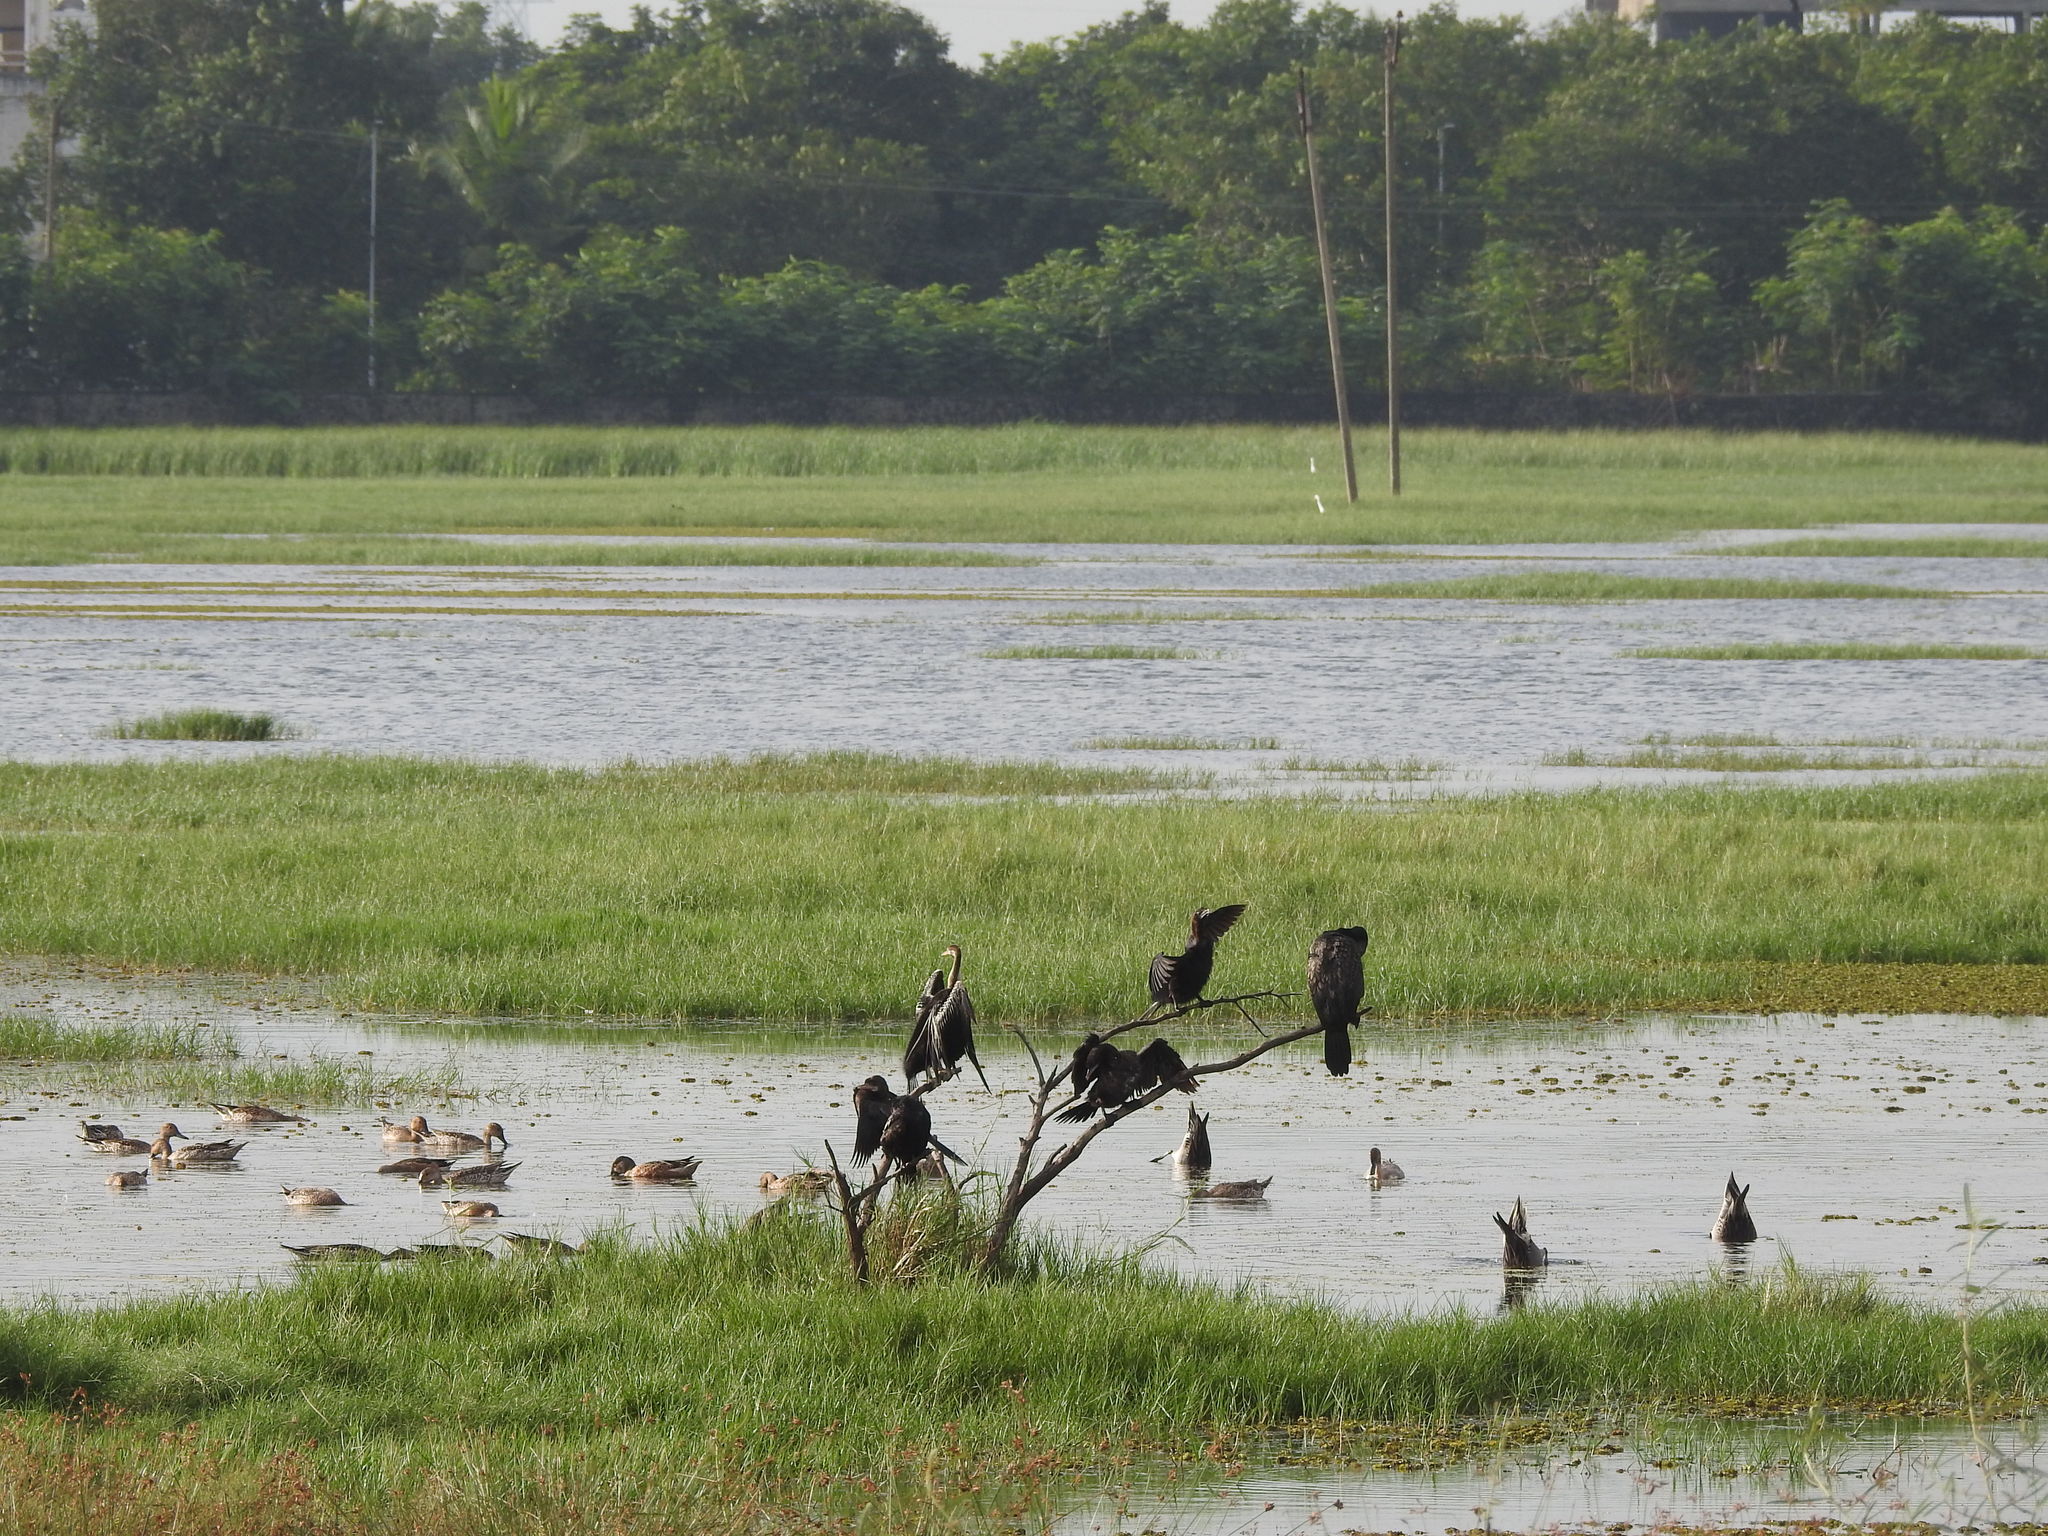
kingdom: Animalia
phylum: Chordata
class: Aves
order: Suliformes
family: Anhingidae
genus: Anhinga
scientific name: Anhinga melanogaster
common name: Oriental darter
